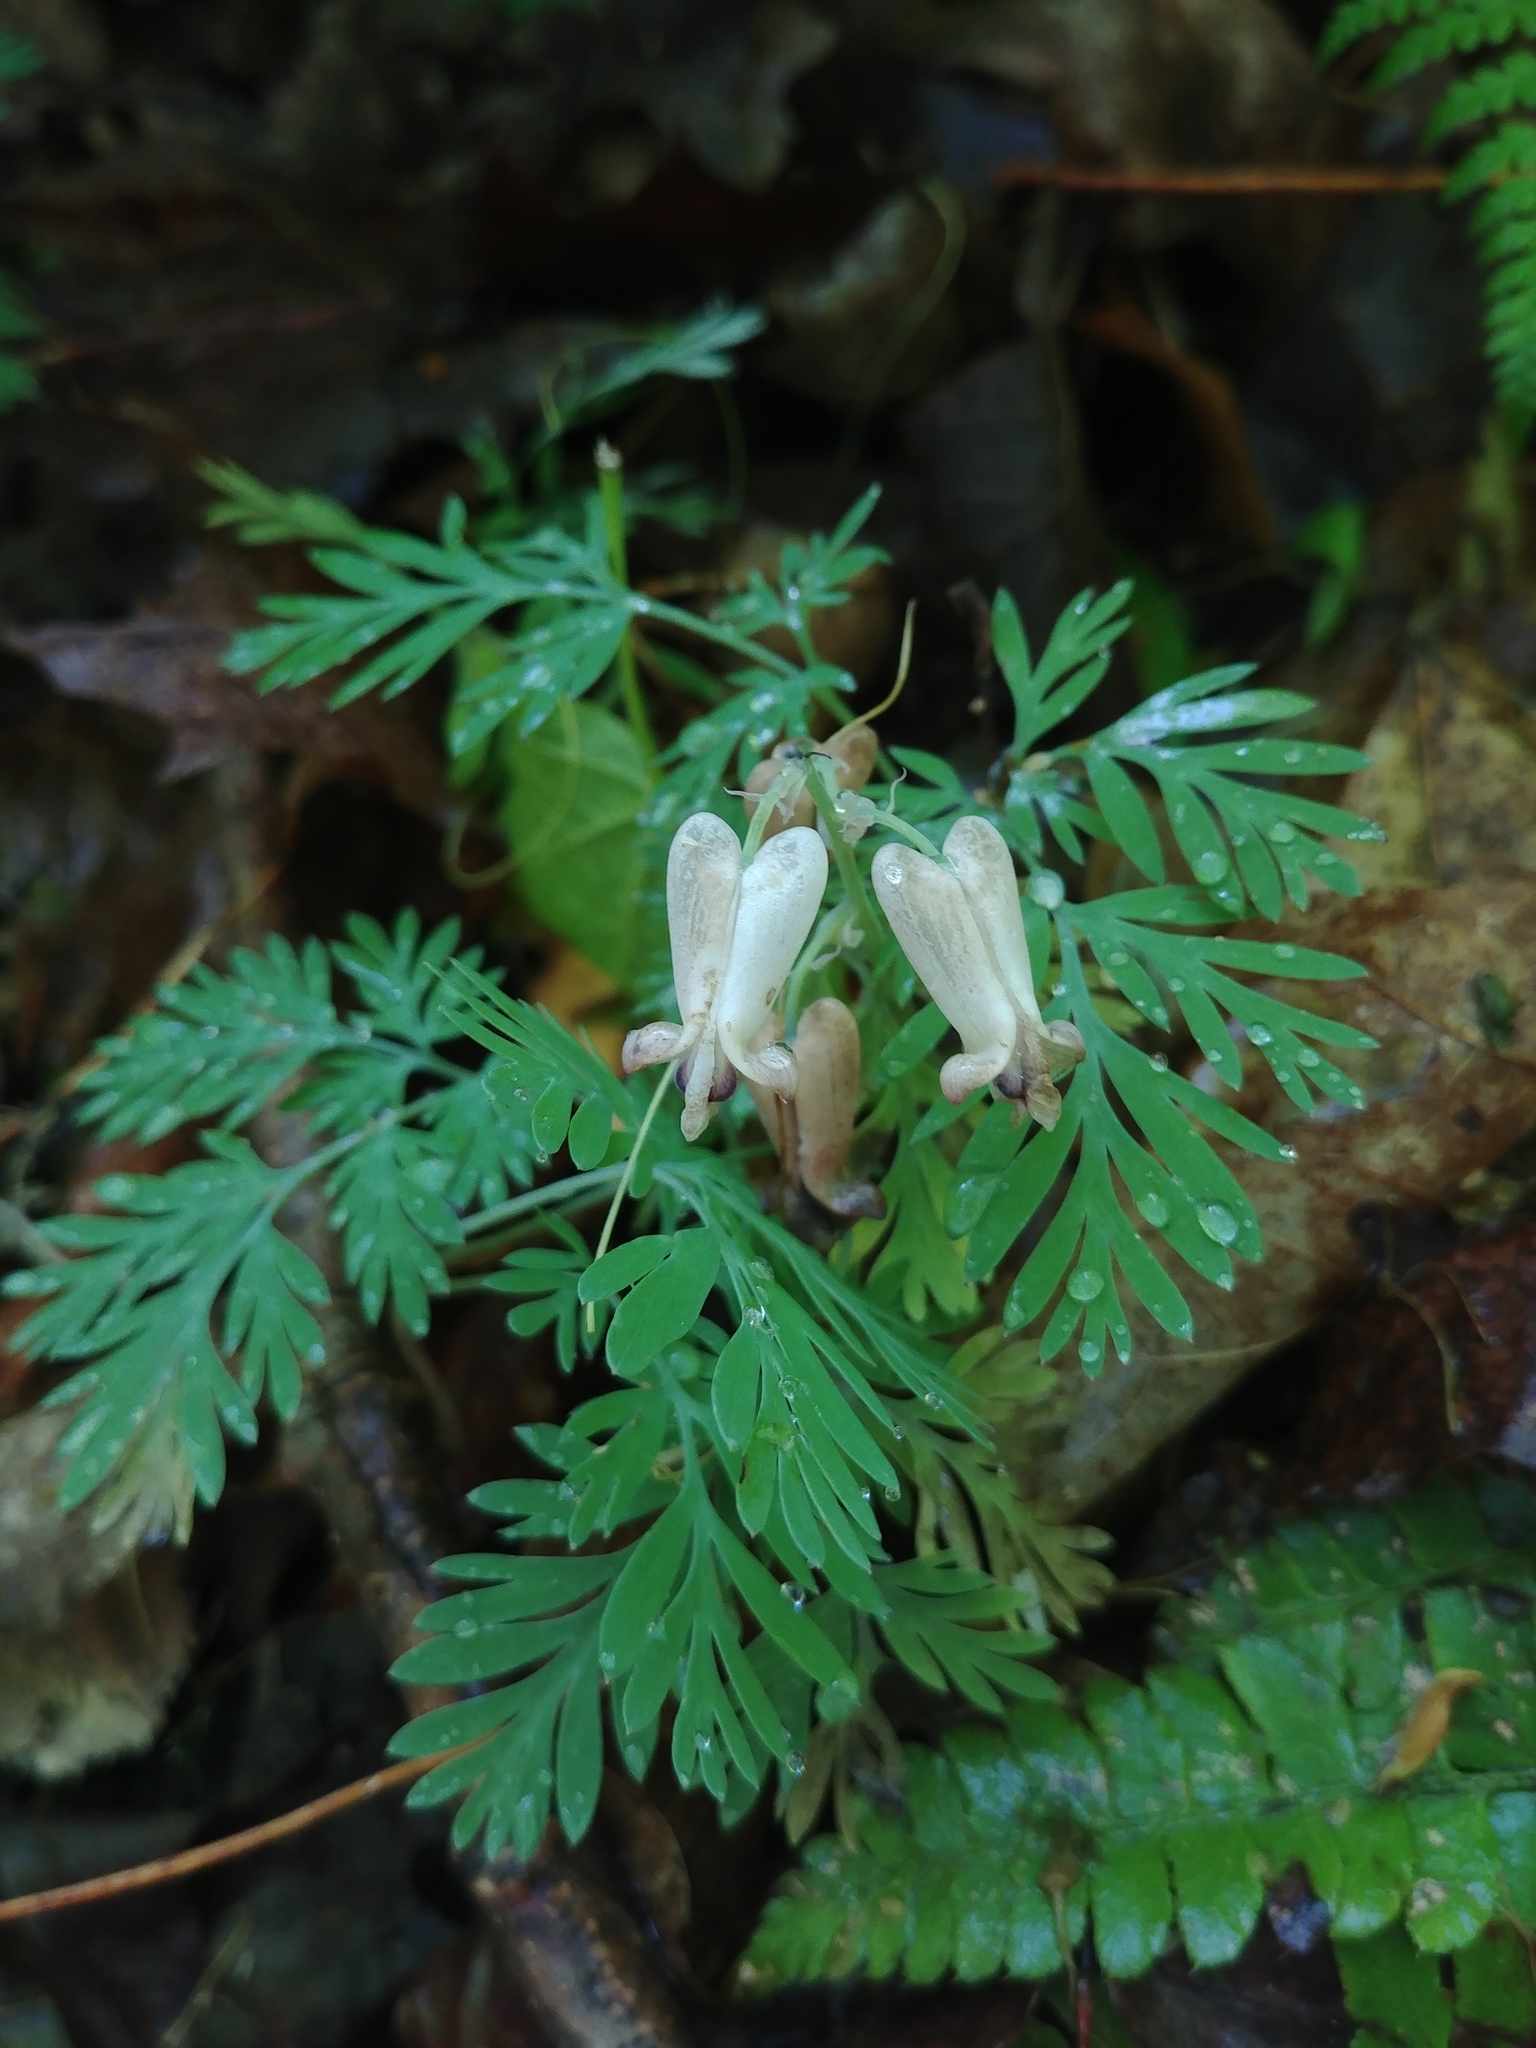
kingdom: Plantae
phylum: Tracheophyta
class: Magnoliopsida
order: Ranunculales
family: Papaveraceae
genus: Dicentra
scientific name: Dicentra canadensis
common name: Squirrel-corn
